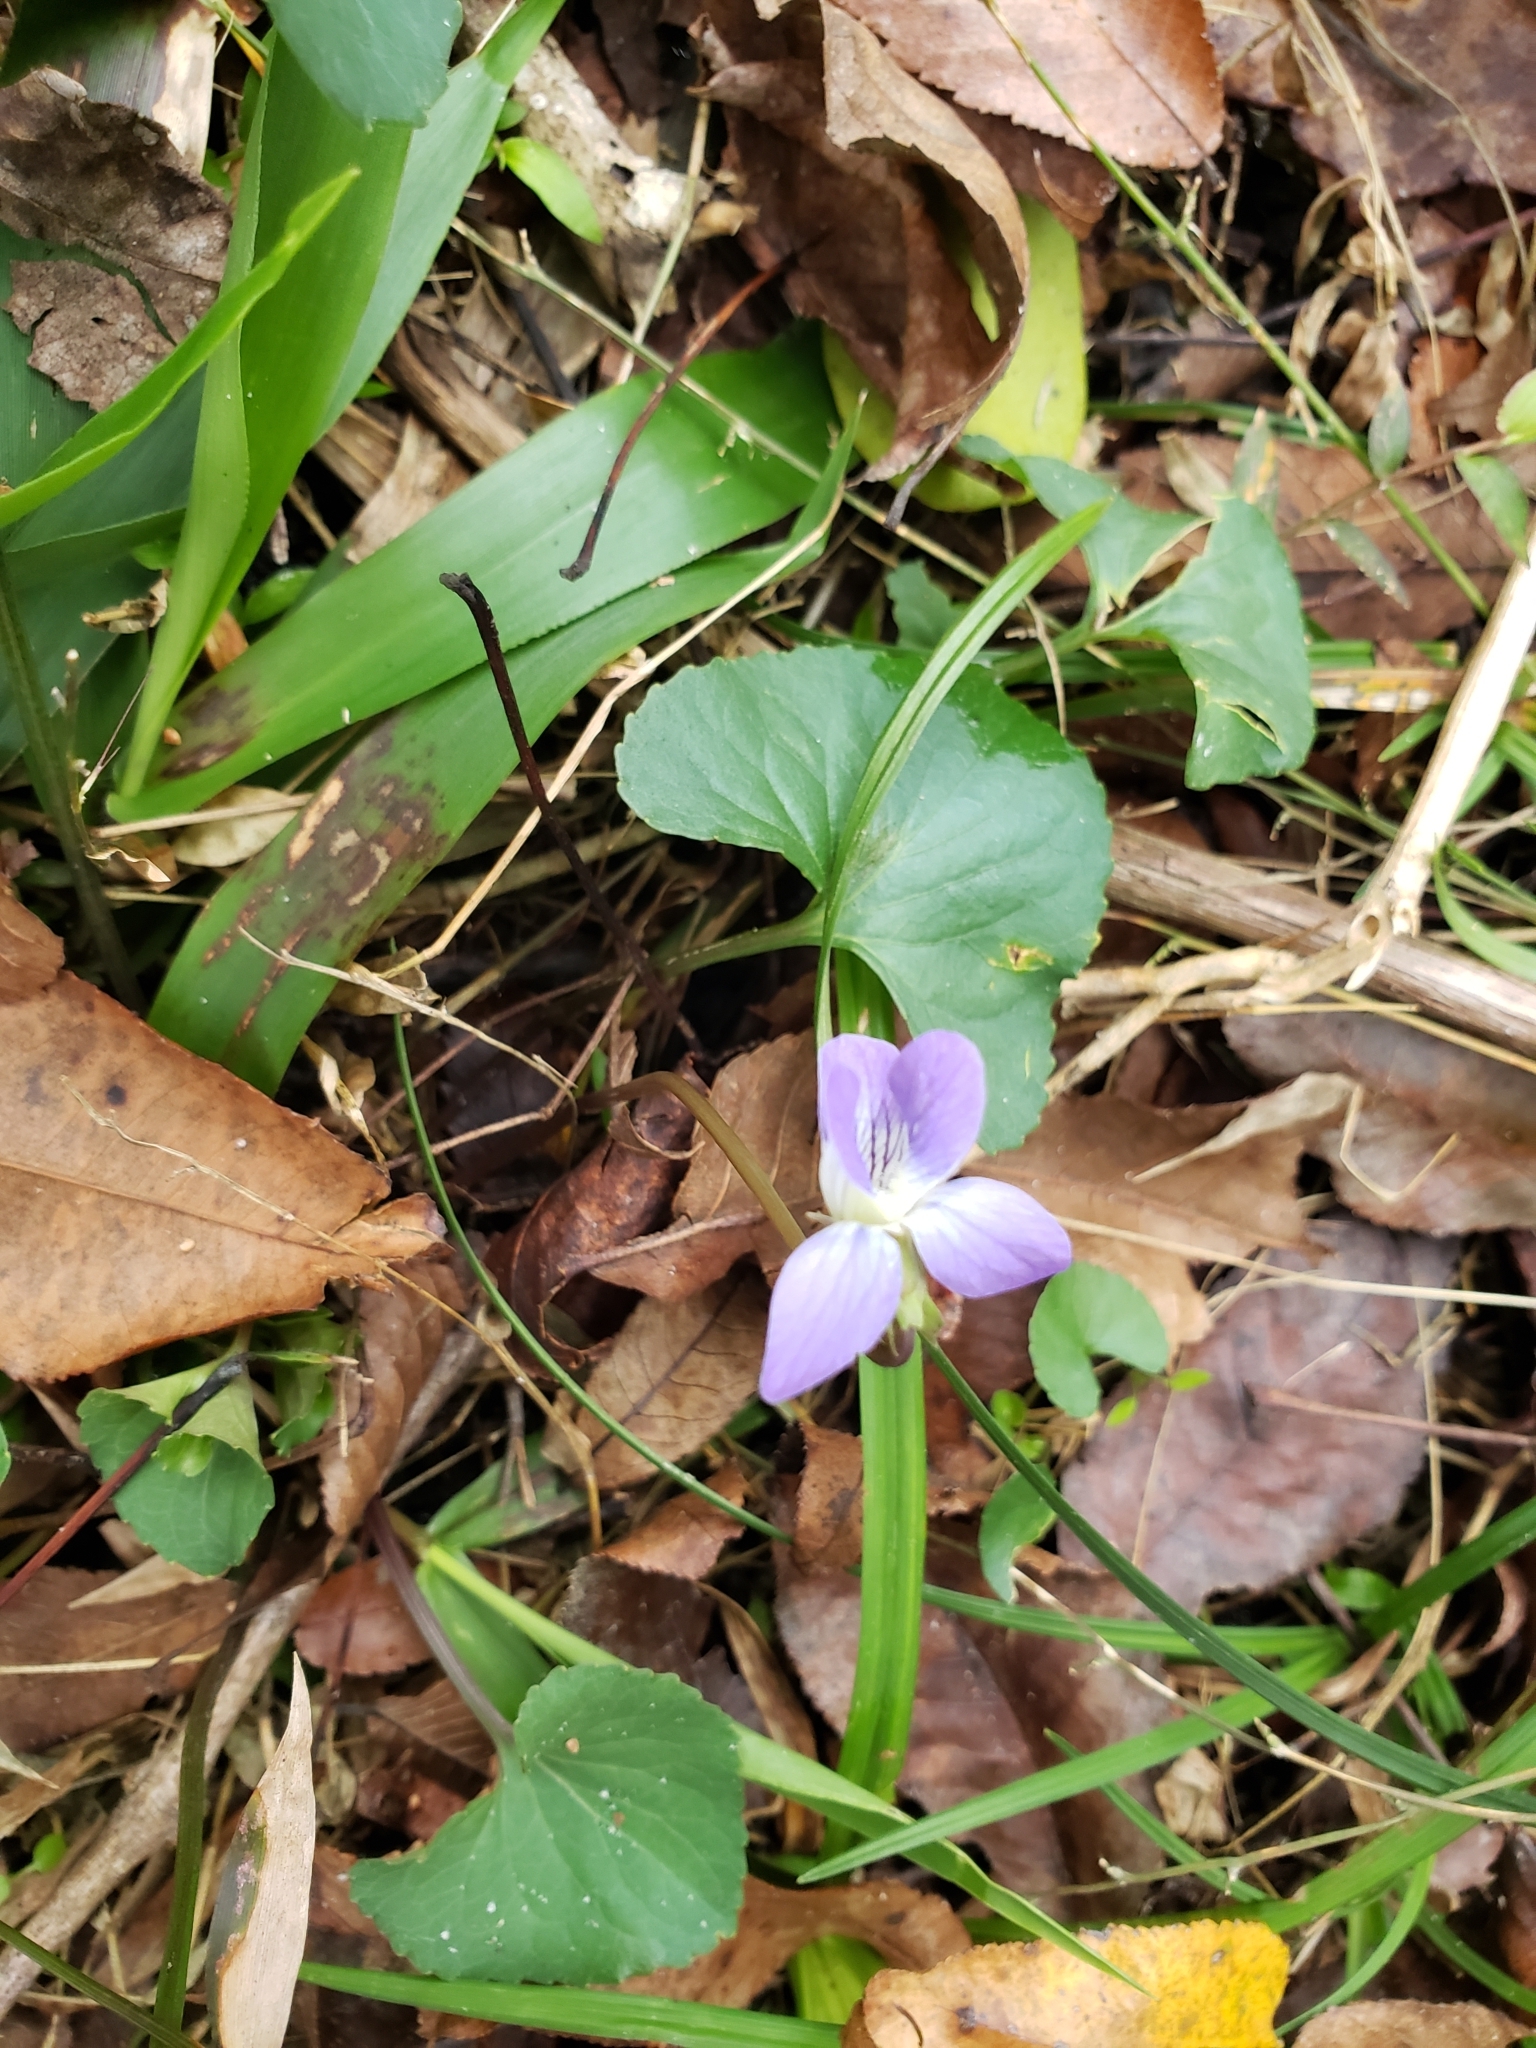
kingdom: Plantae
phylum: Tracheophyta
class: Magnoliopsida
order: Malpighiales
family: Violaceae
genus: Viola
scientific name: Viola sororia
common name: Dooryard violet
